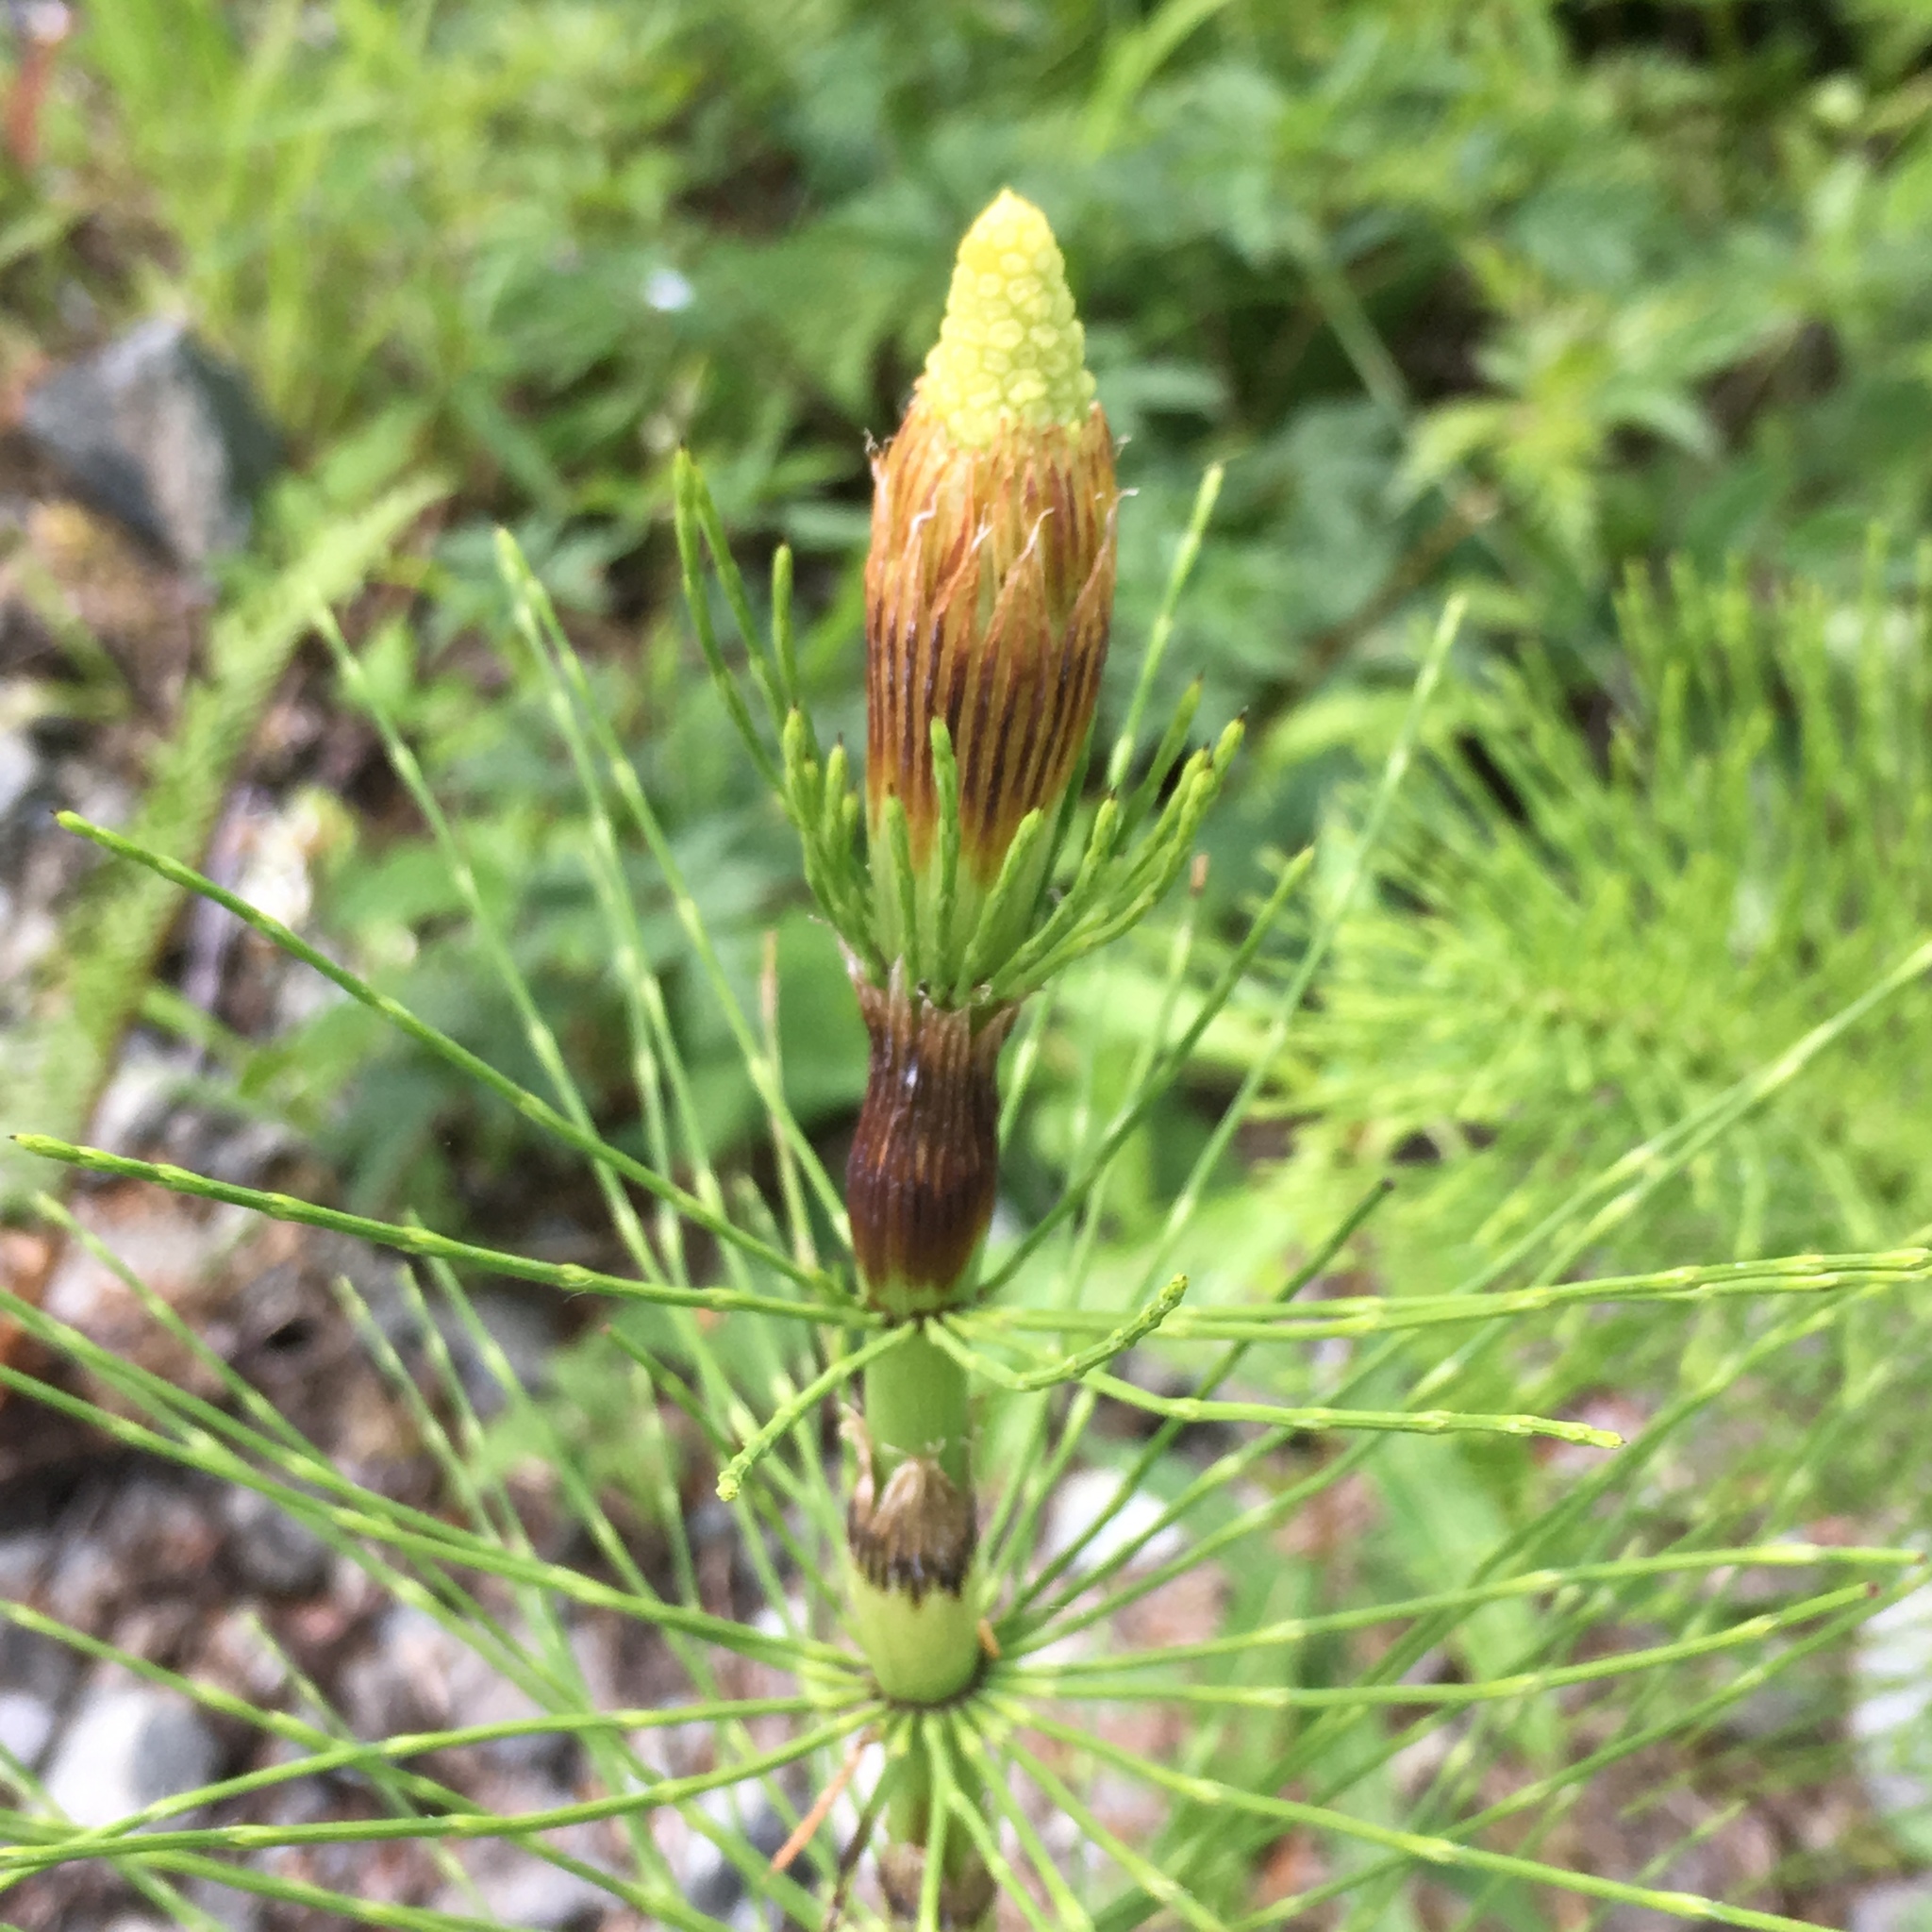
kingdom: Plantae
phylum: Tracheophyta
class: Polypodiopsida
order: Equisetales
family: Equisetaceae
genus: Equisetum
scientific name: Equisetum braunii
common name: Braun's horsetail
